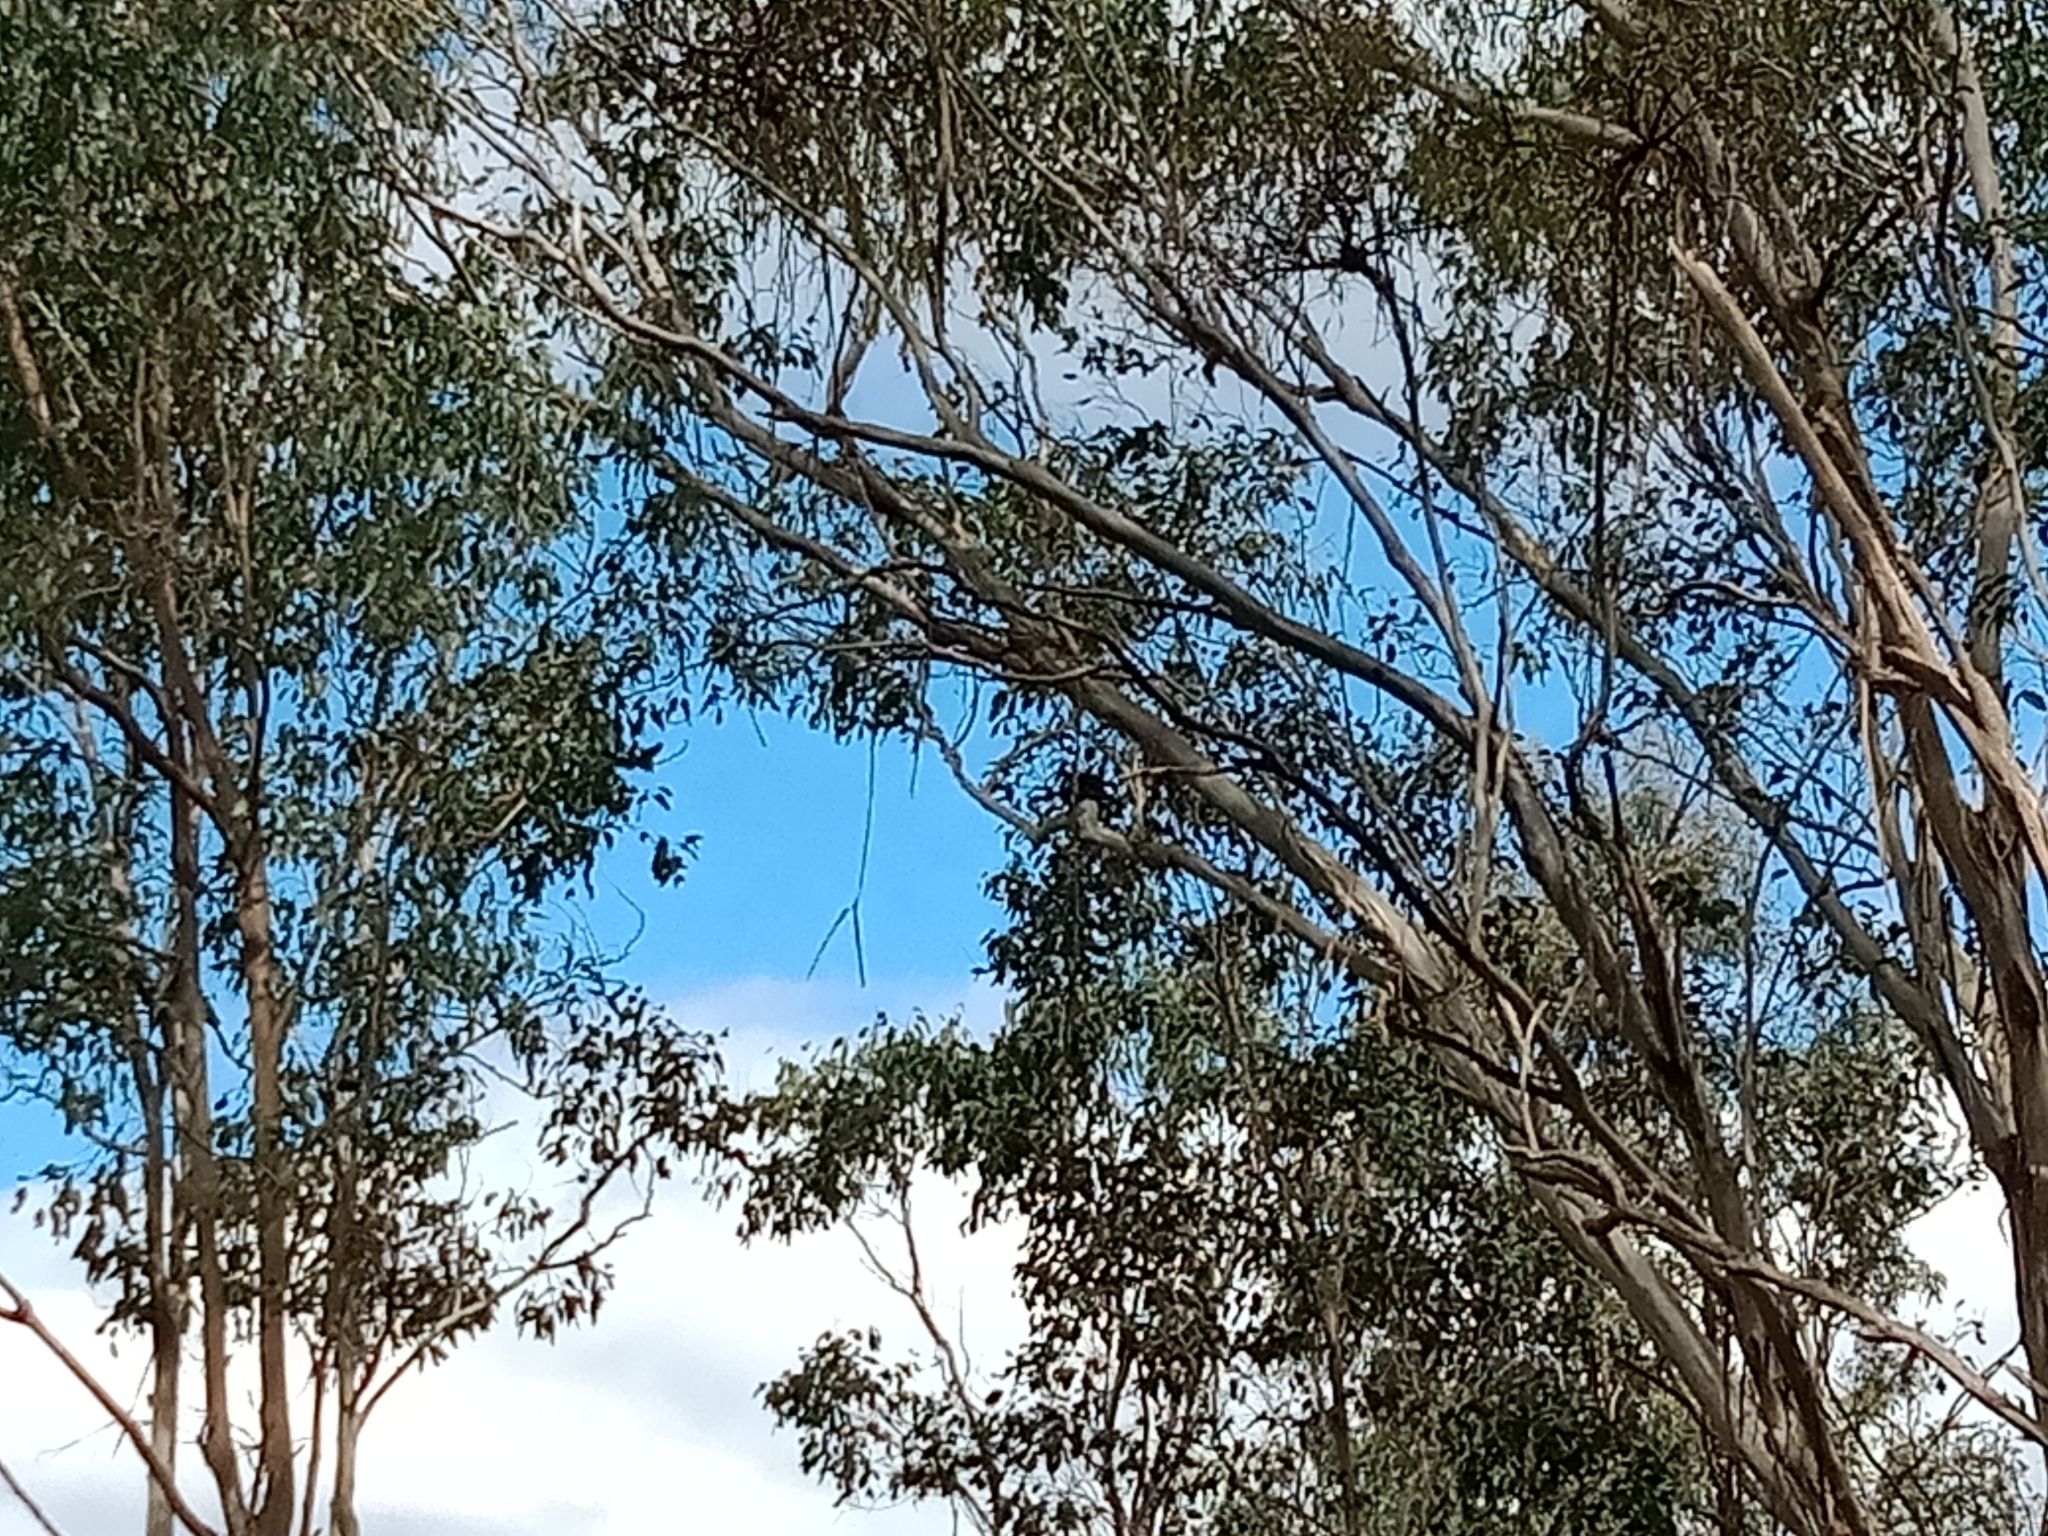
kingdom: Animalia
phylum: Chordata
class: Aves
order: Psittaciformes
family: Cacatuidae
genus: Zanda
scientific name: Zanda funerea
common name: Yellow-tailed black-cockatoo
